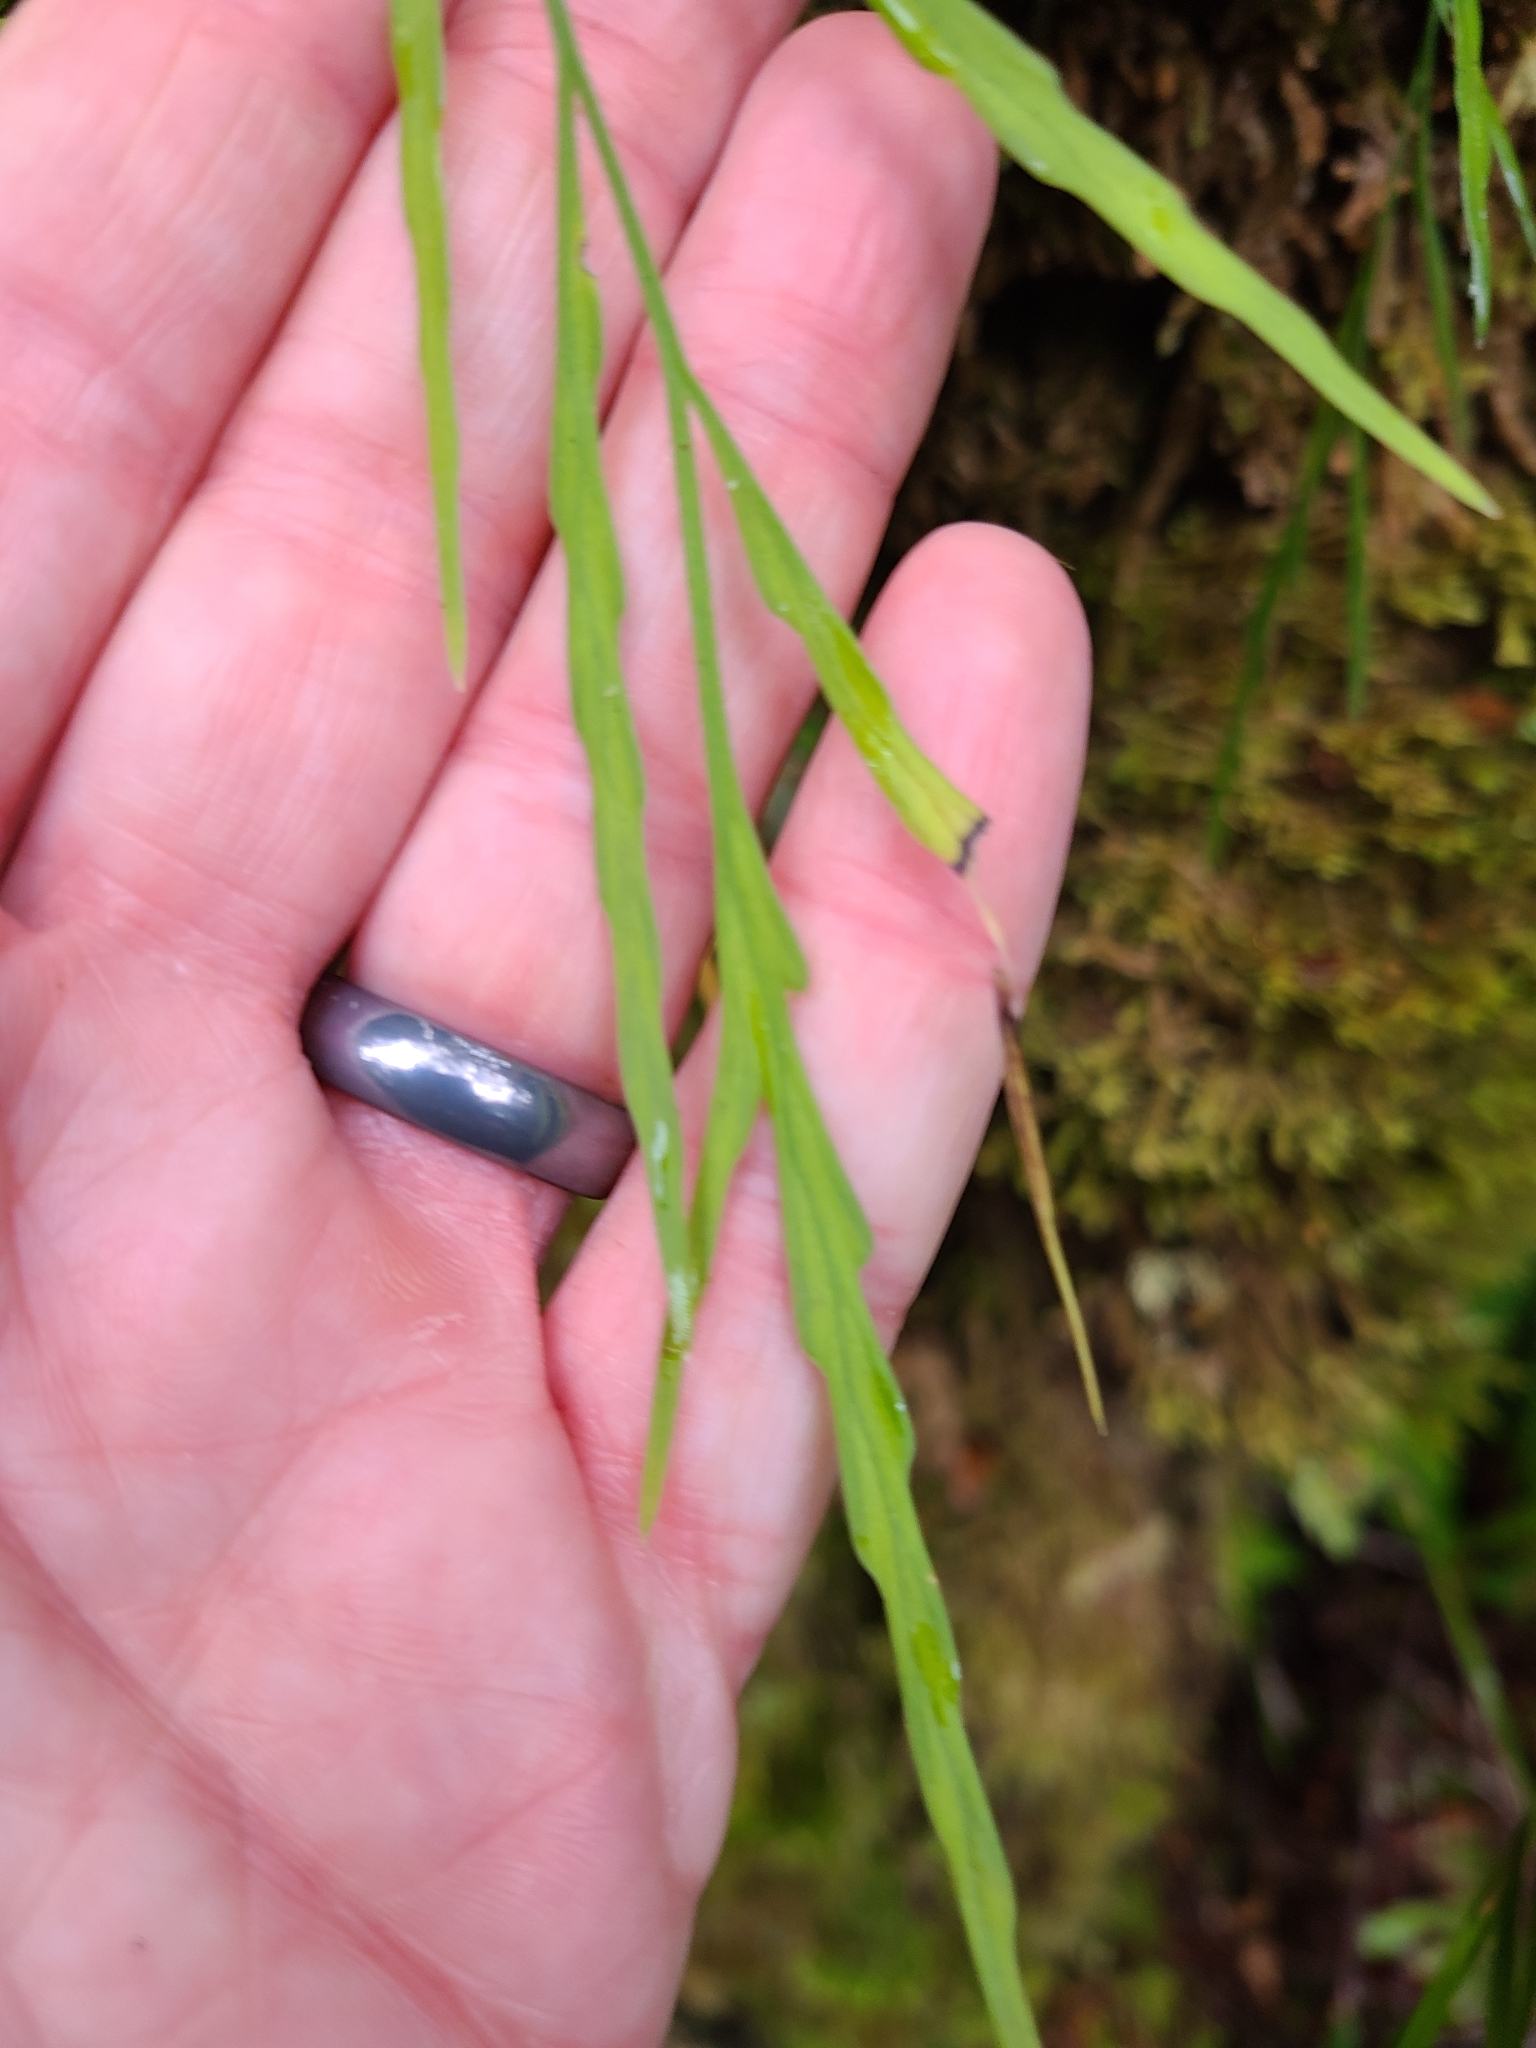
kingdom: Plantae
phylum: Tracheophyta
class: Polypodiopsida
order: Polypodiales
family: Aspleniaceae
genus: Asplenium
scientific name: Asplenium flaccidum
